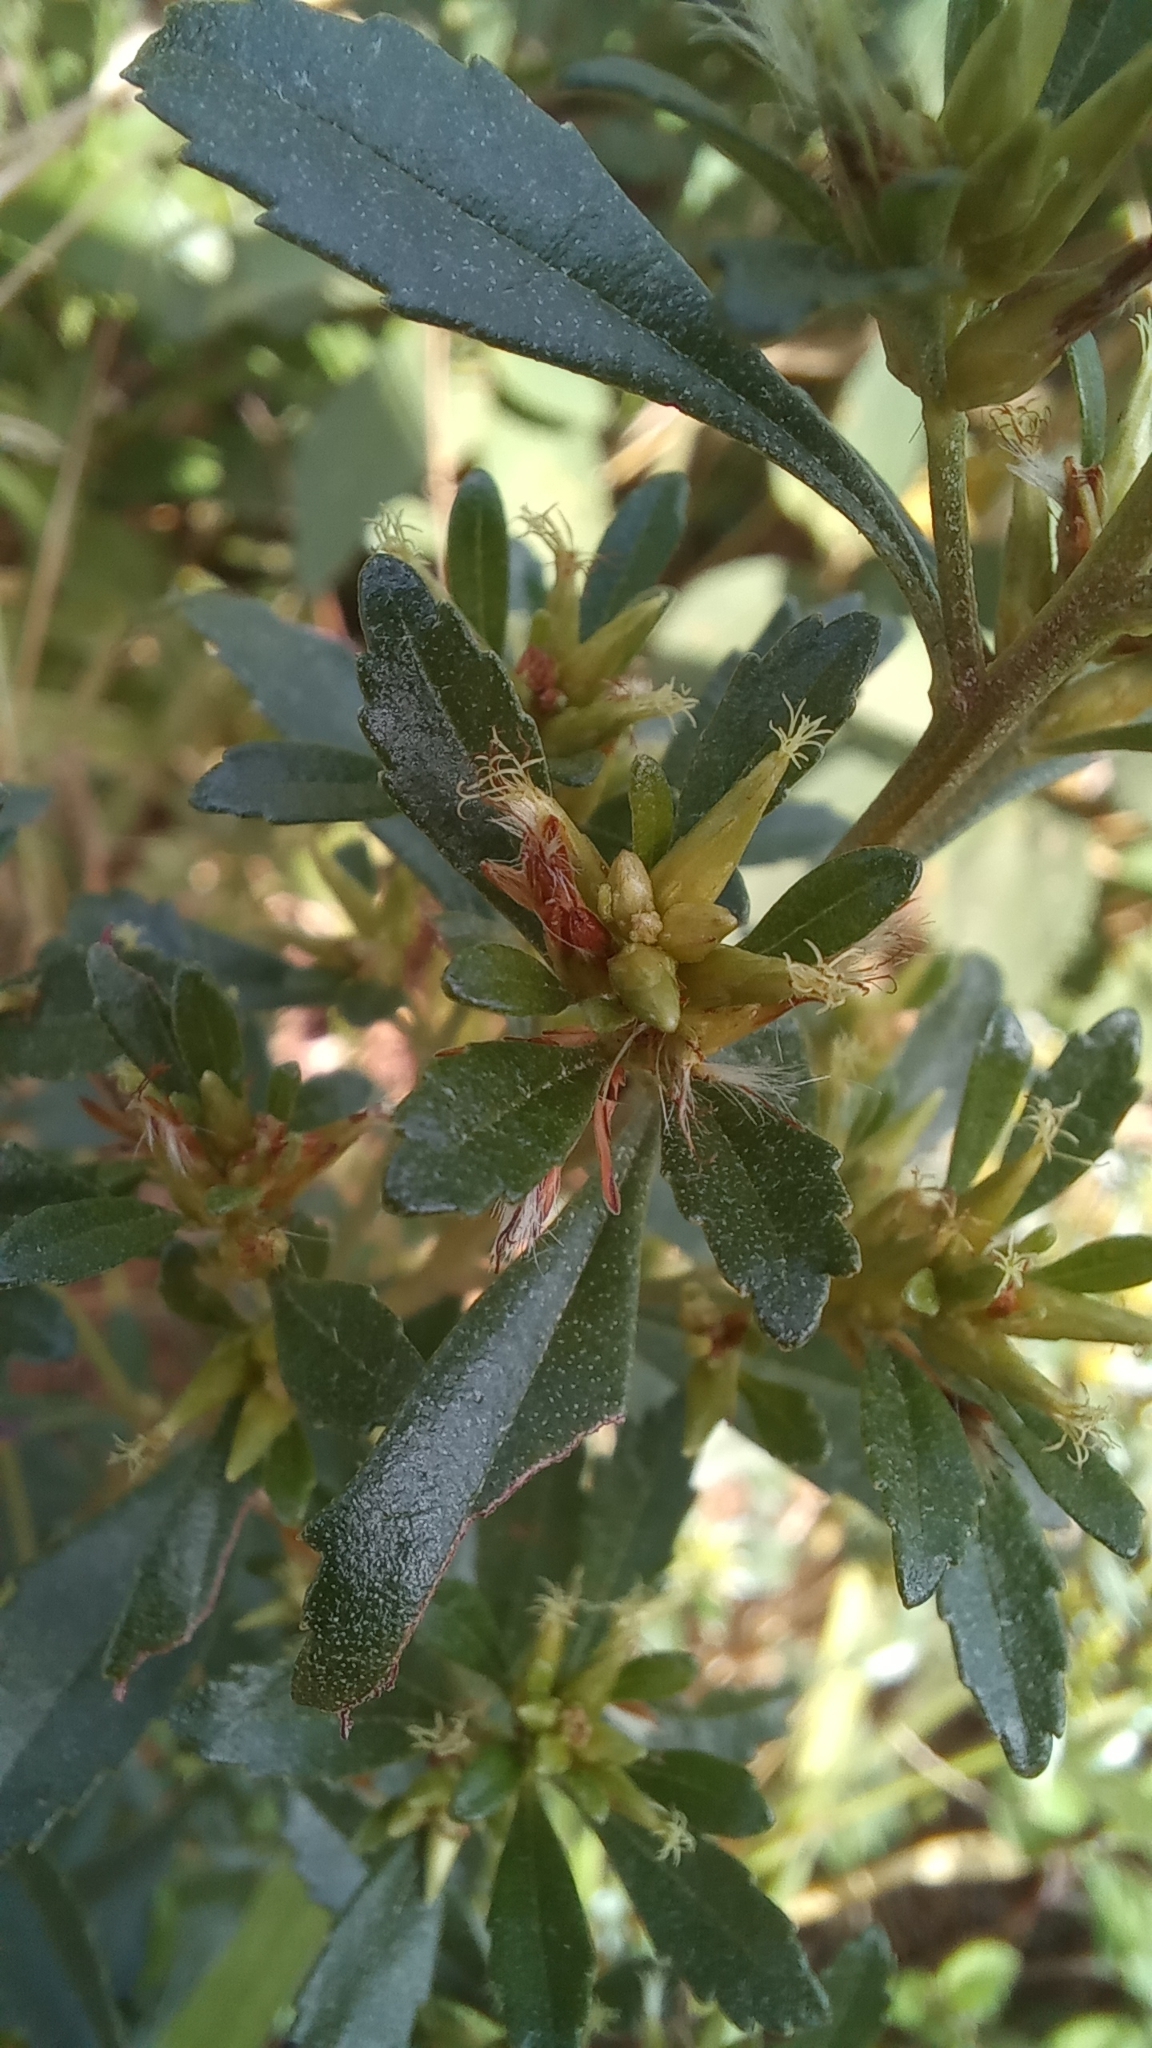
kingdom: Plantae
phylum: Tracheophyta
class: Magnoliopsida
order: Asterales
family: Asteraceae
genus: Baccharis
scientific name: Baccharis microdonta
